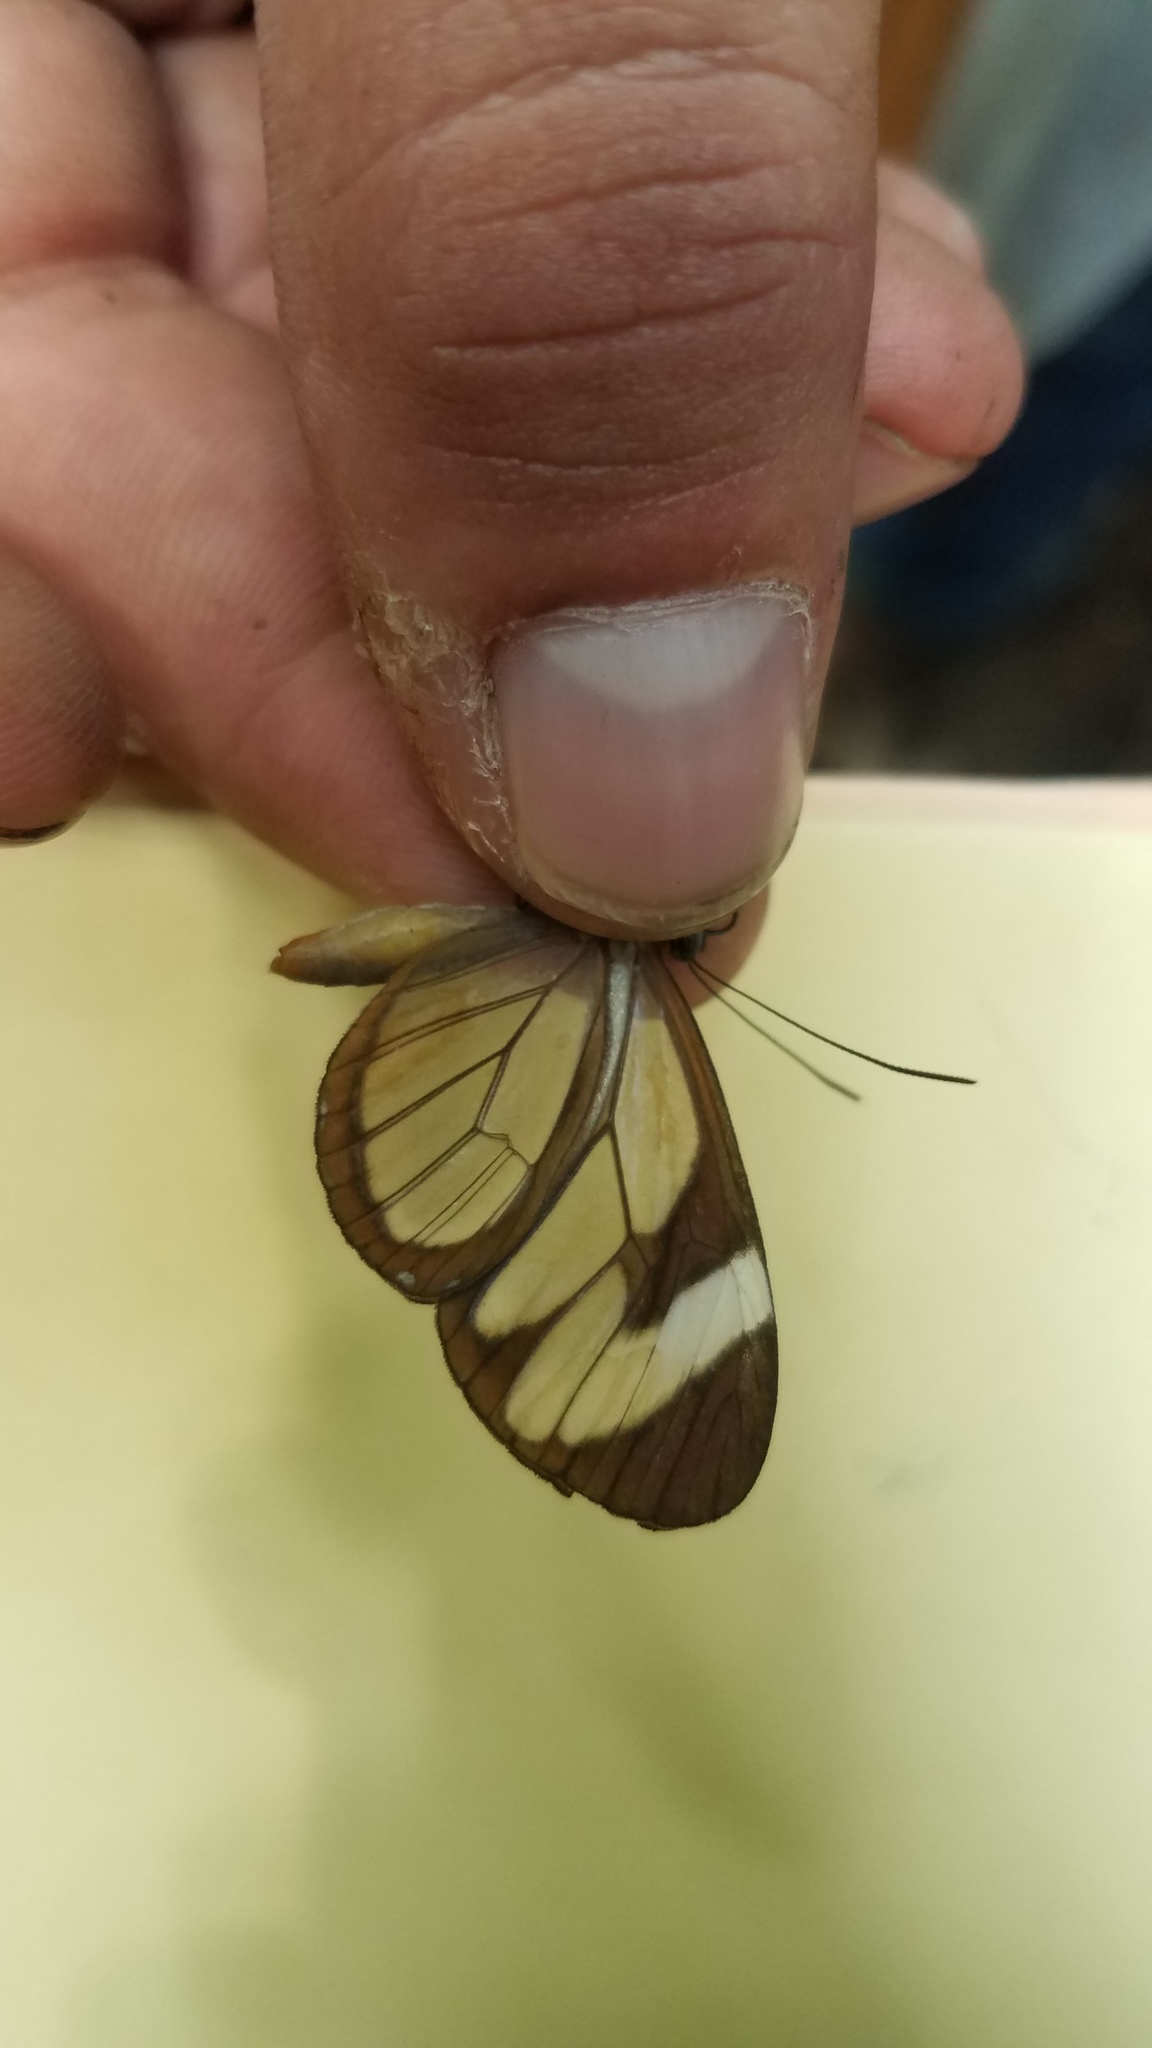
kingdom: Animalia
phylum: Arthropoda
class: Insecta
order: Lepidoptera
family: Nymphalidae
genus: Ithomia
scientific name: Ithomia patilla
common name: Patilla clearwing
